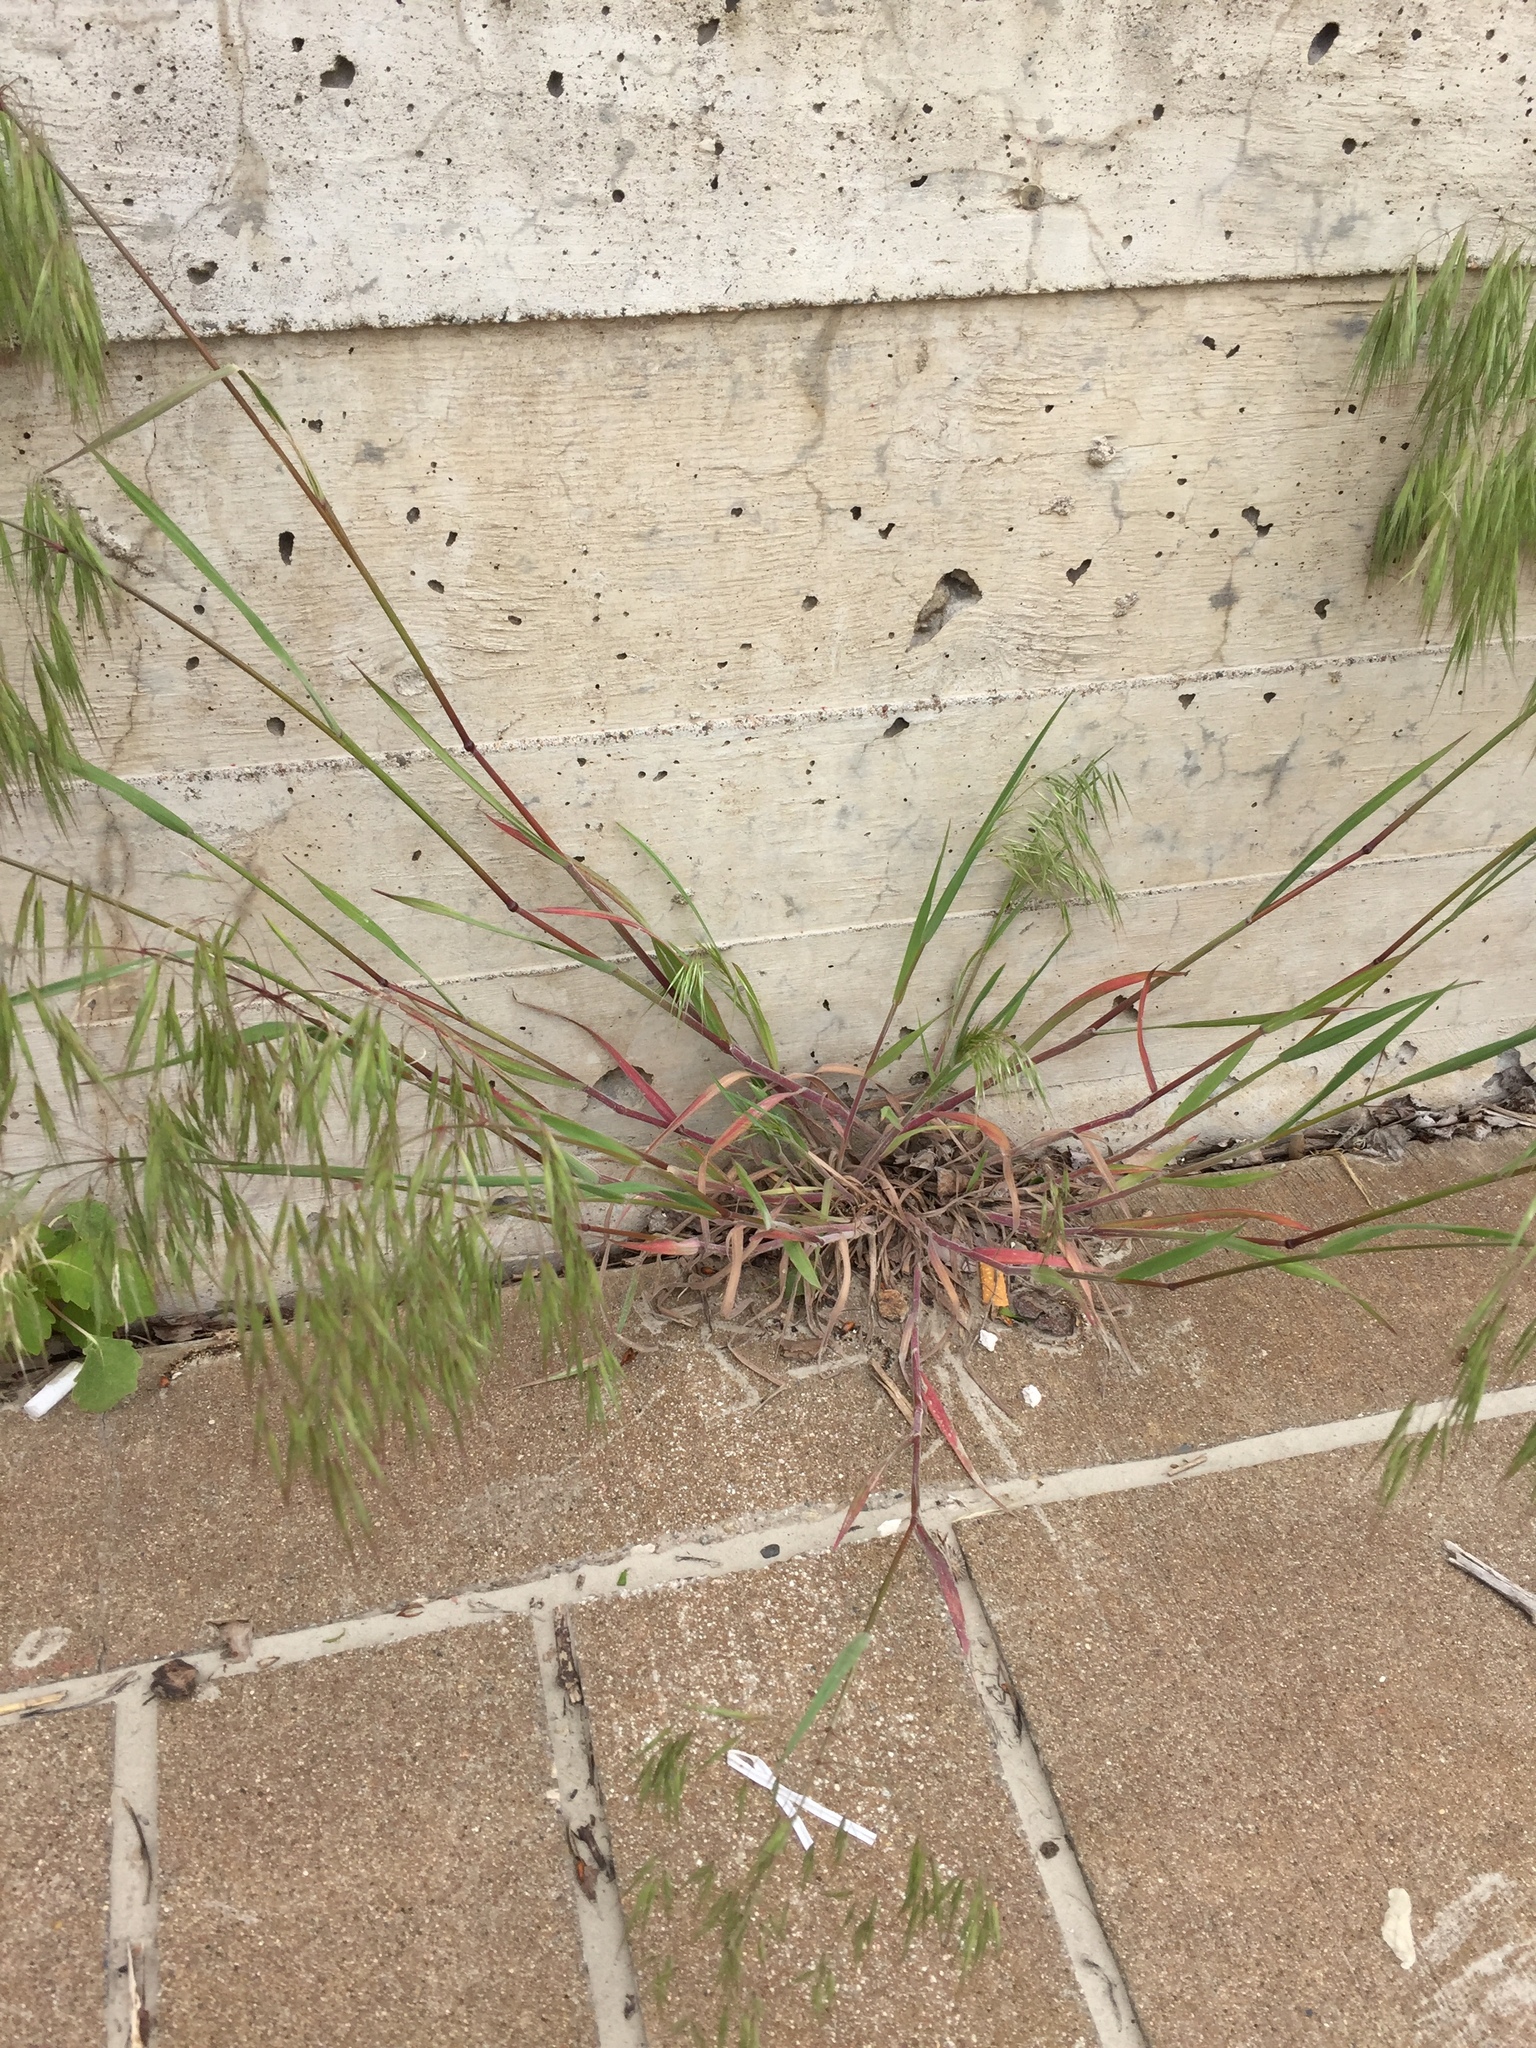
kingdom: Plantae
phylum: Tracheophyta
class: Liliopsida
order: Poales
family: Poaceae
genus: Bromus
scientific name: Bromus tectorum
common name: Cheatgrass
